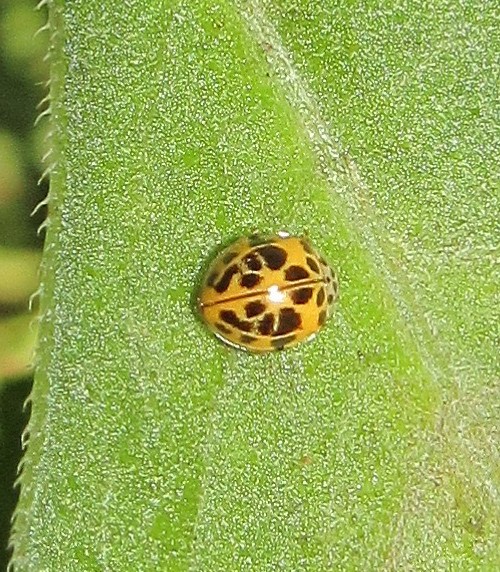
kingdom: Animalia
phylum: Arthropoda
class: Insecta
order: Coleoptera
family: Coccinellidae
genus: Psyllobora
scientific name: Psyllobora
